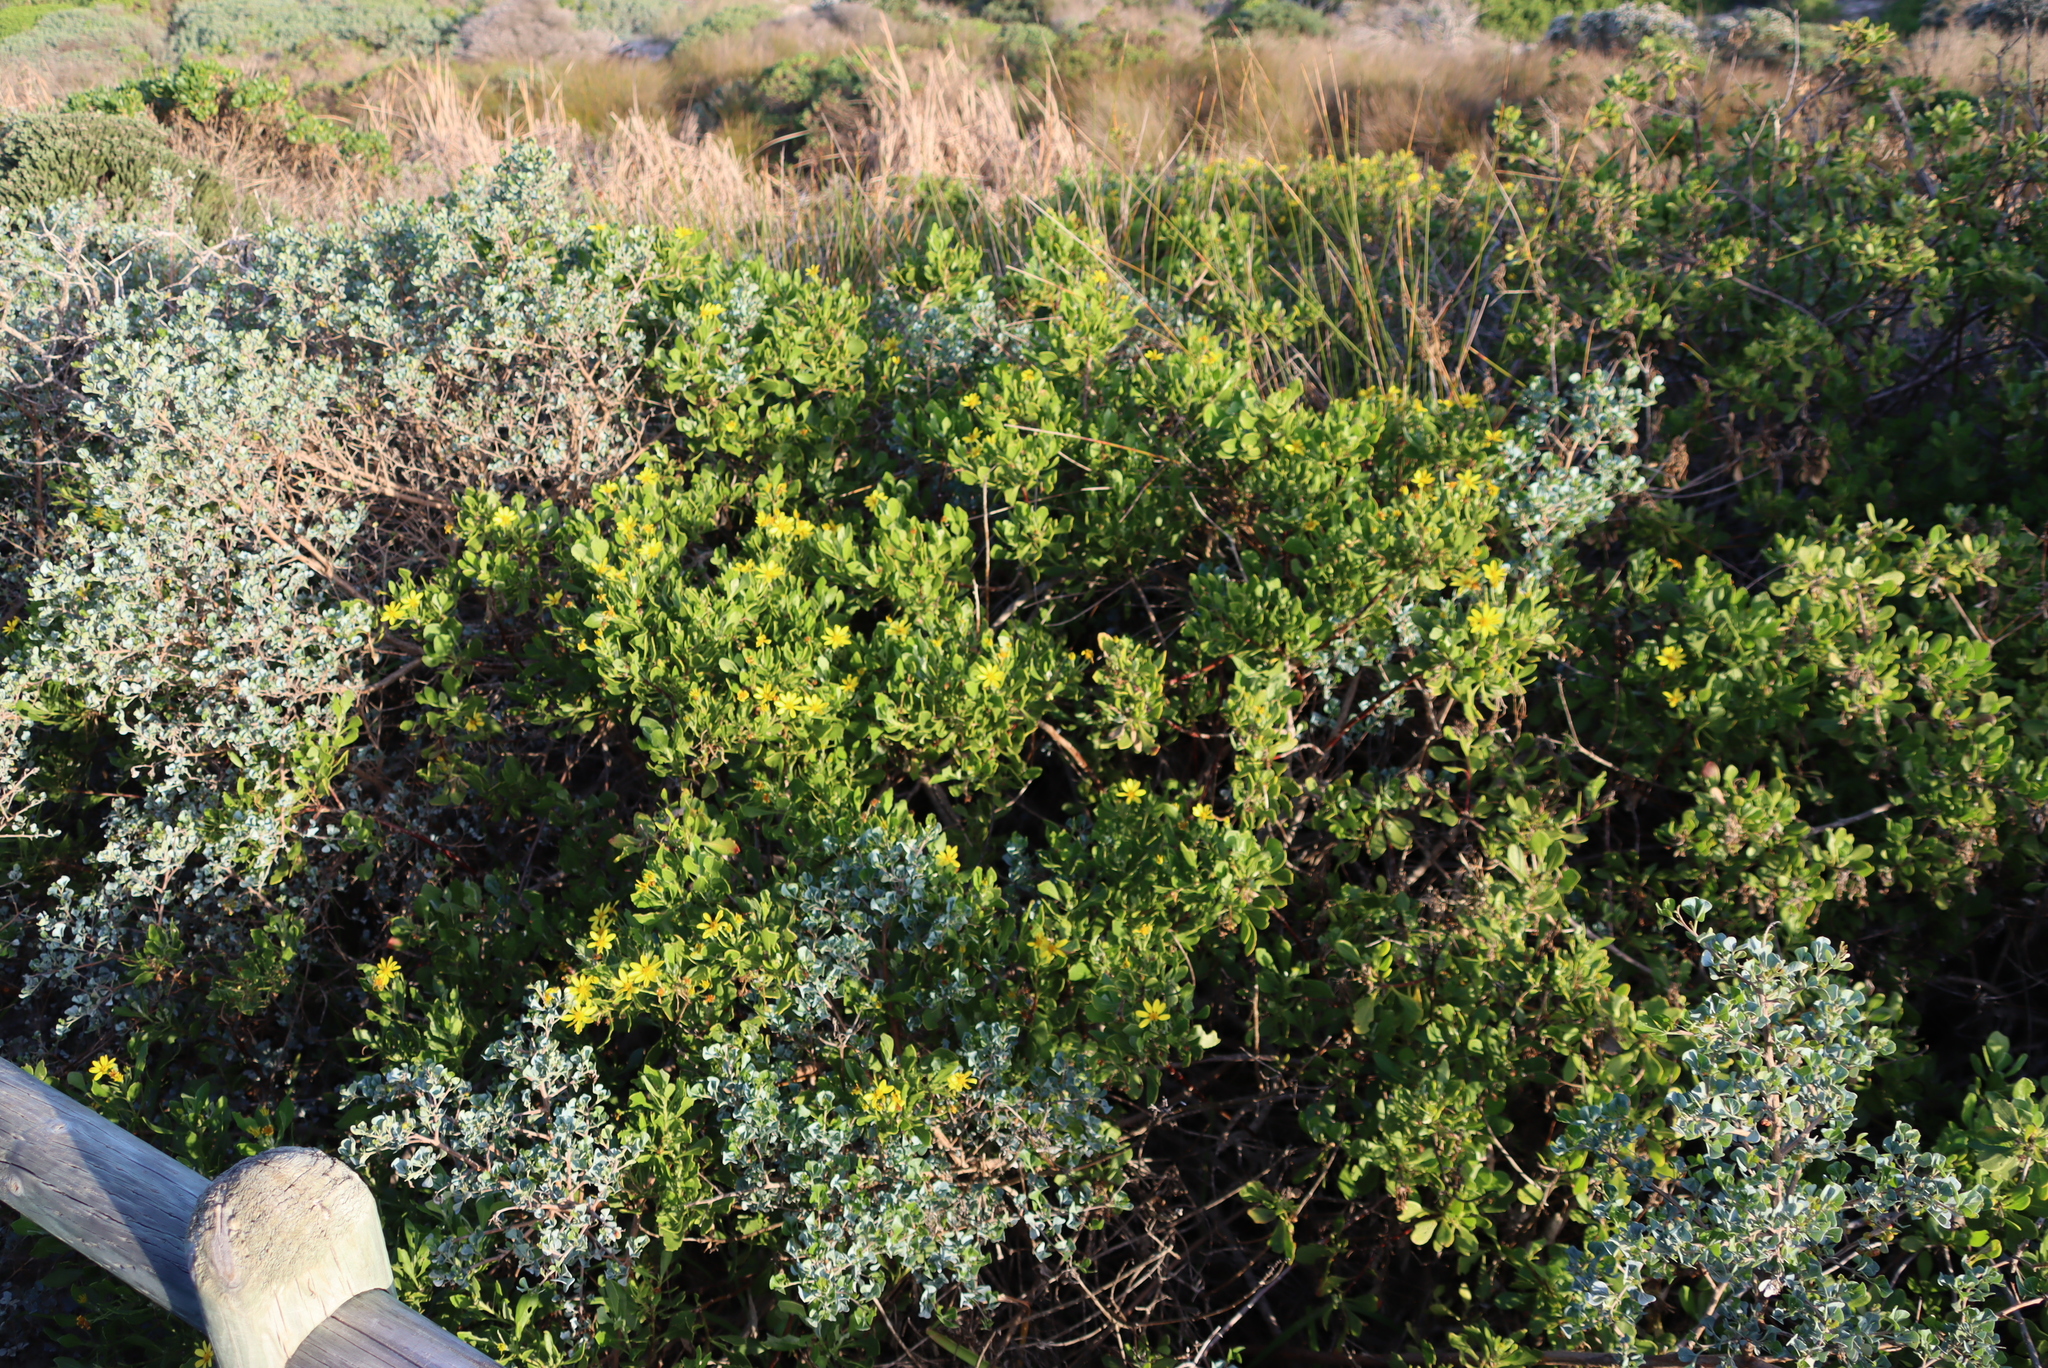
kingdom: Plantae
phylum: Tracheophyta
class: Magnoliopsida
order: Asterales
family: Asteraceae
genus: Osteospermum
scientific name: Osteospermum moniliferum
